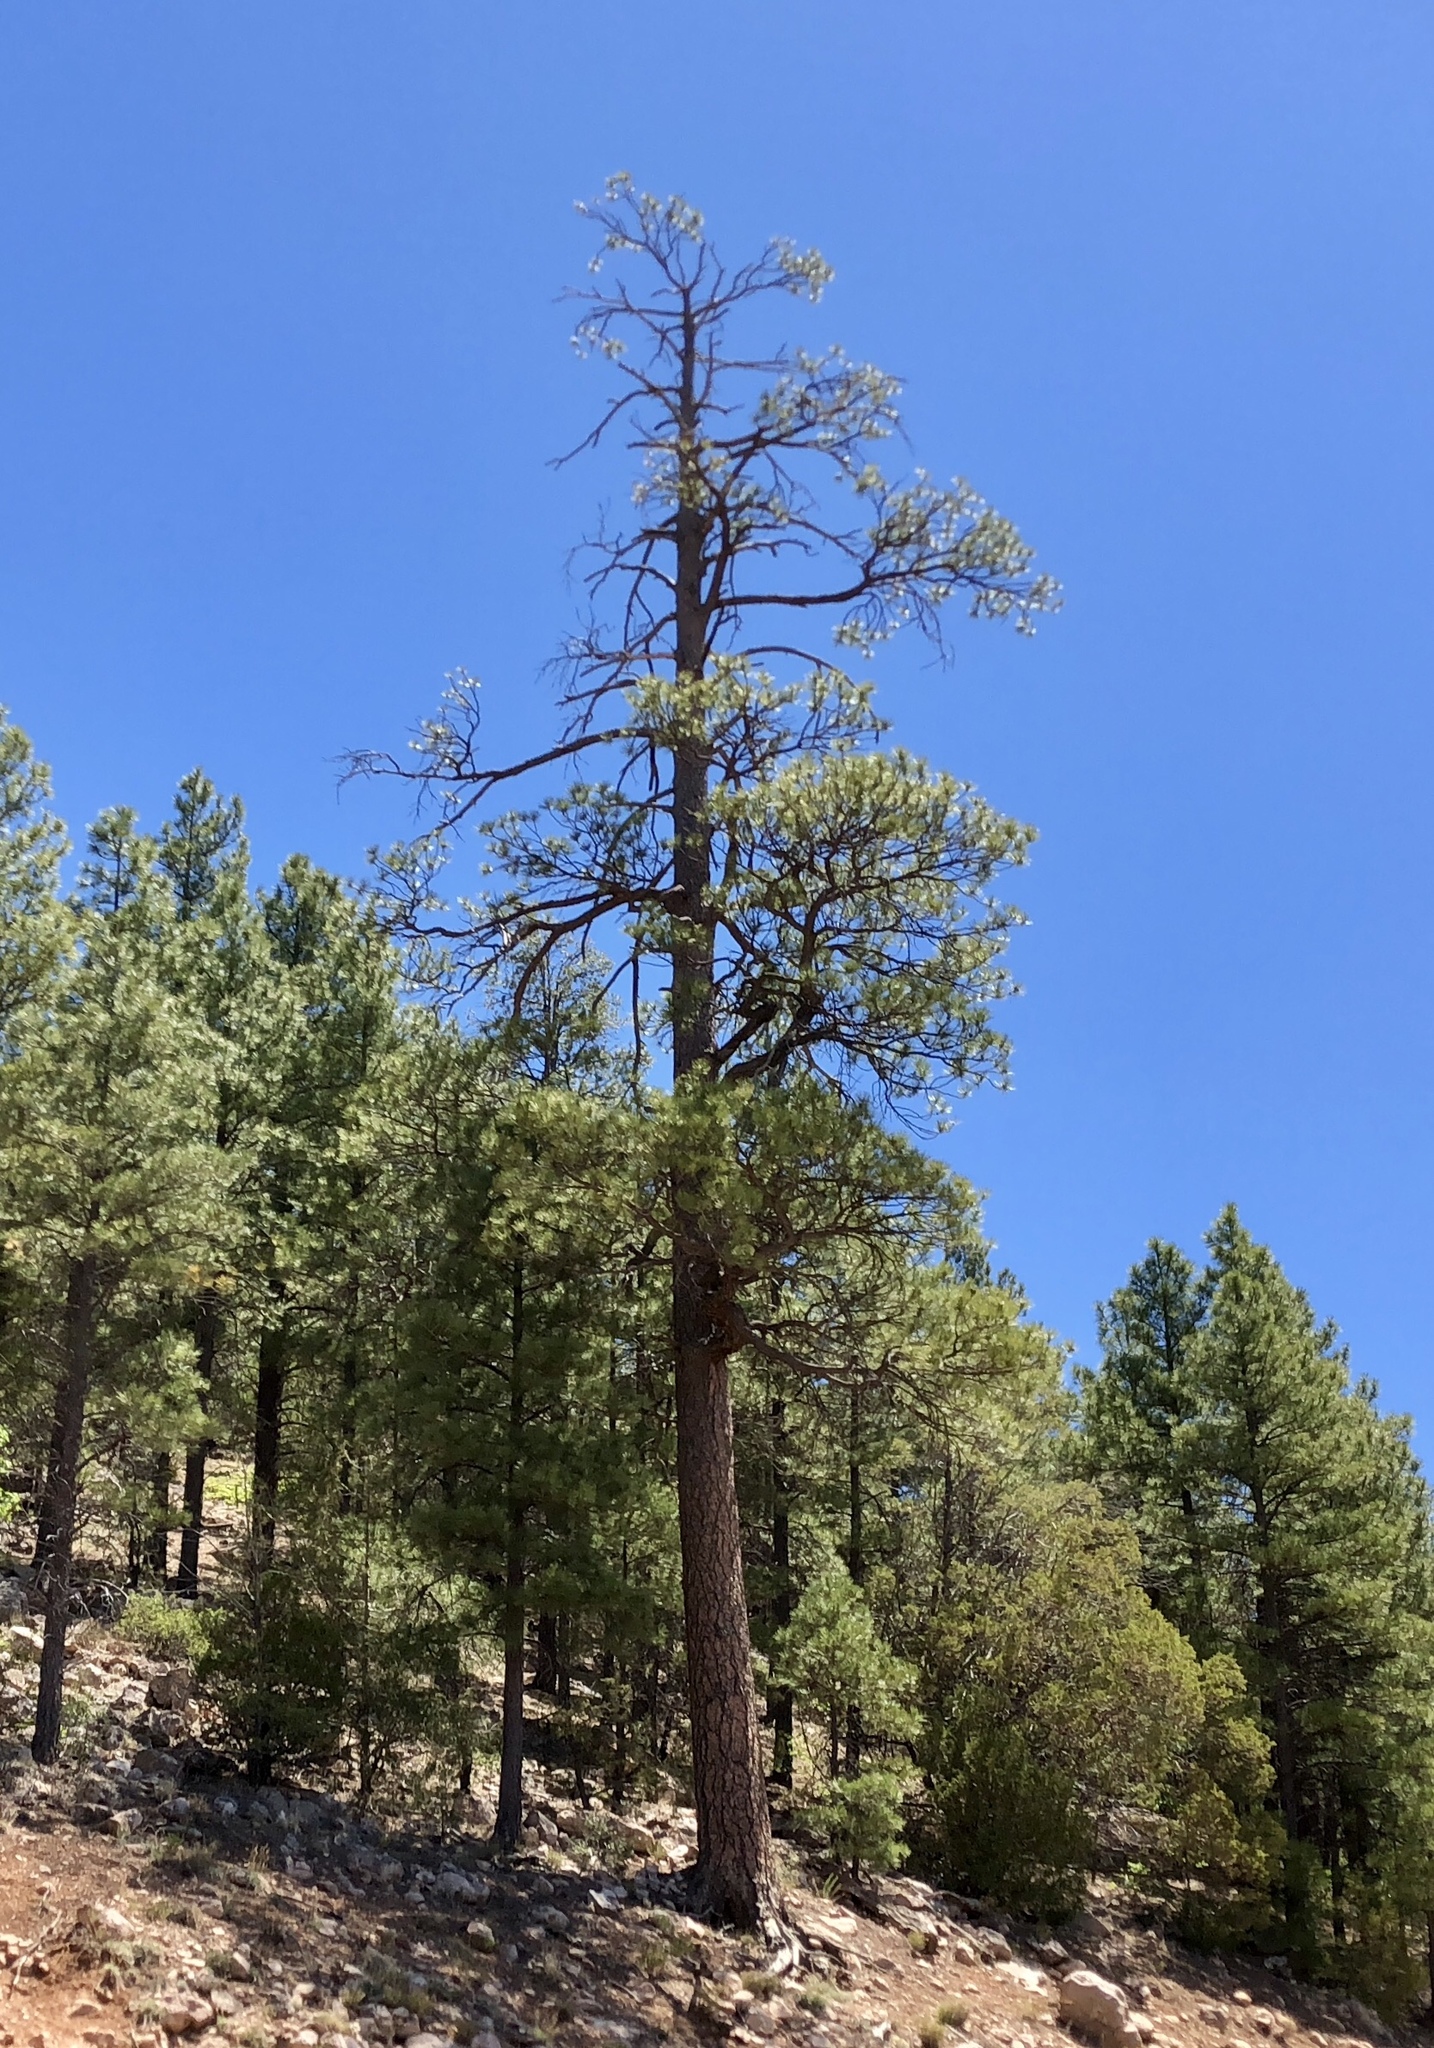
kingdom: Plantae
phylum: Tracheophyta
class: Pinopsida
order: Pinales
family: Pinaceae
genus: Pinus
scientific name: Pinus ponderosa
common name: Western yellow-pine
